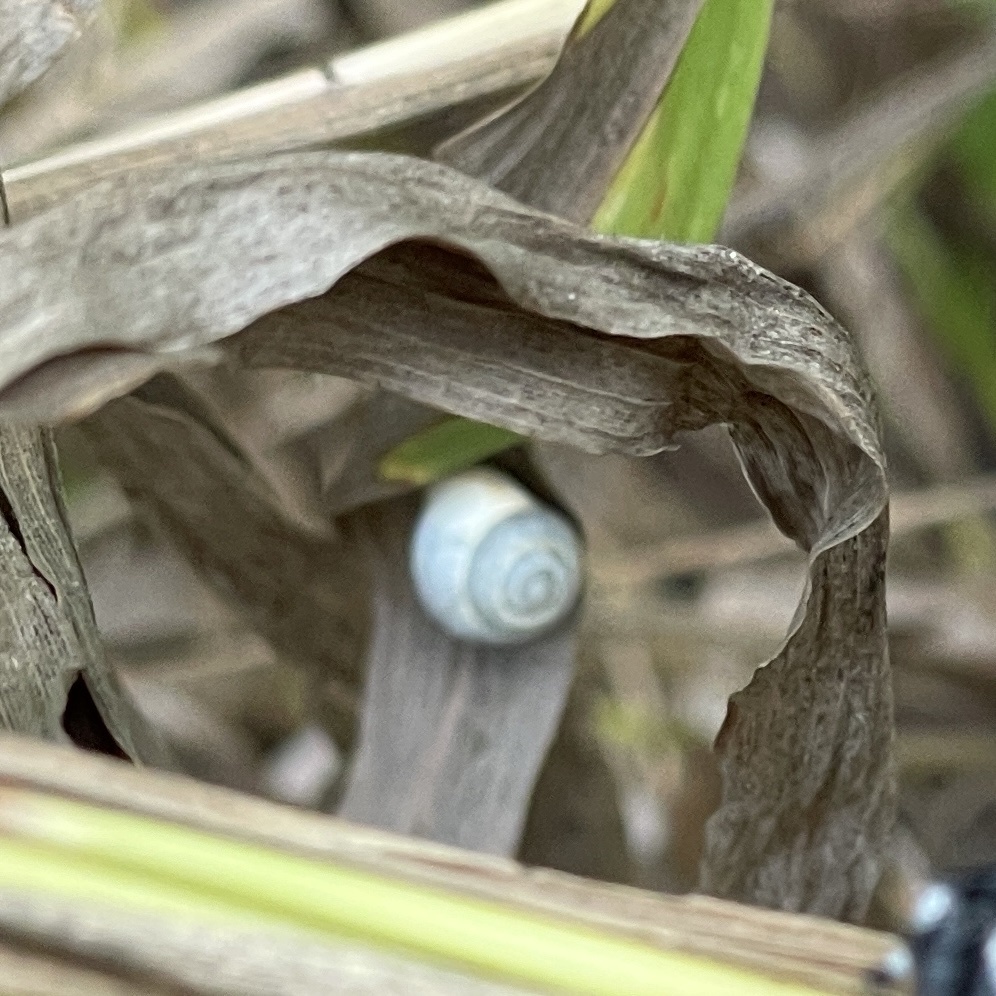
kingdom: Animalia
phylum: Mollusca
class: Gastropoda
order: Cycloneritida
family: Helicinidae
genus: Helicina
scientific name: Helicina orbiculata
